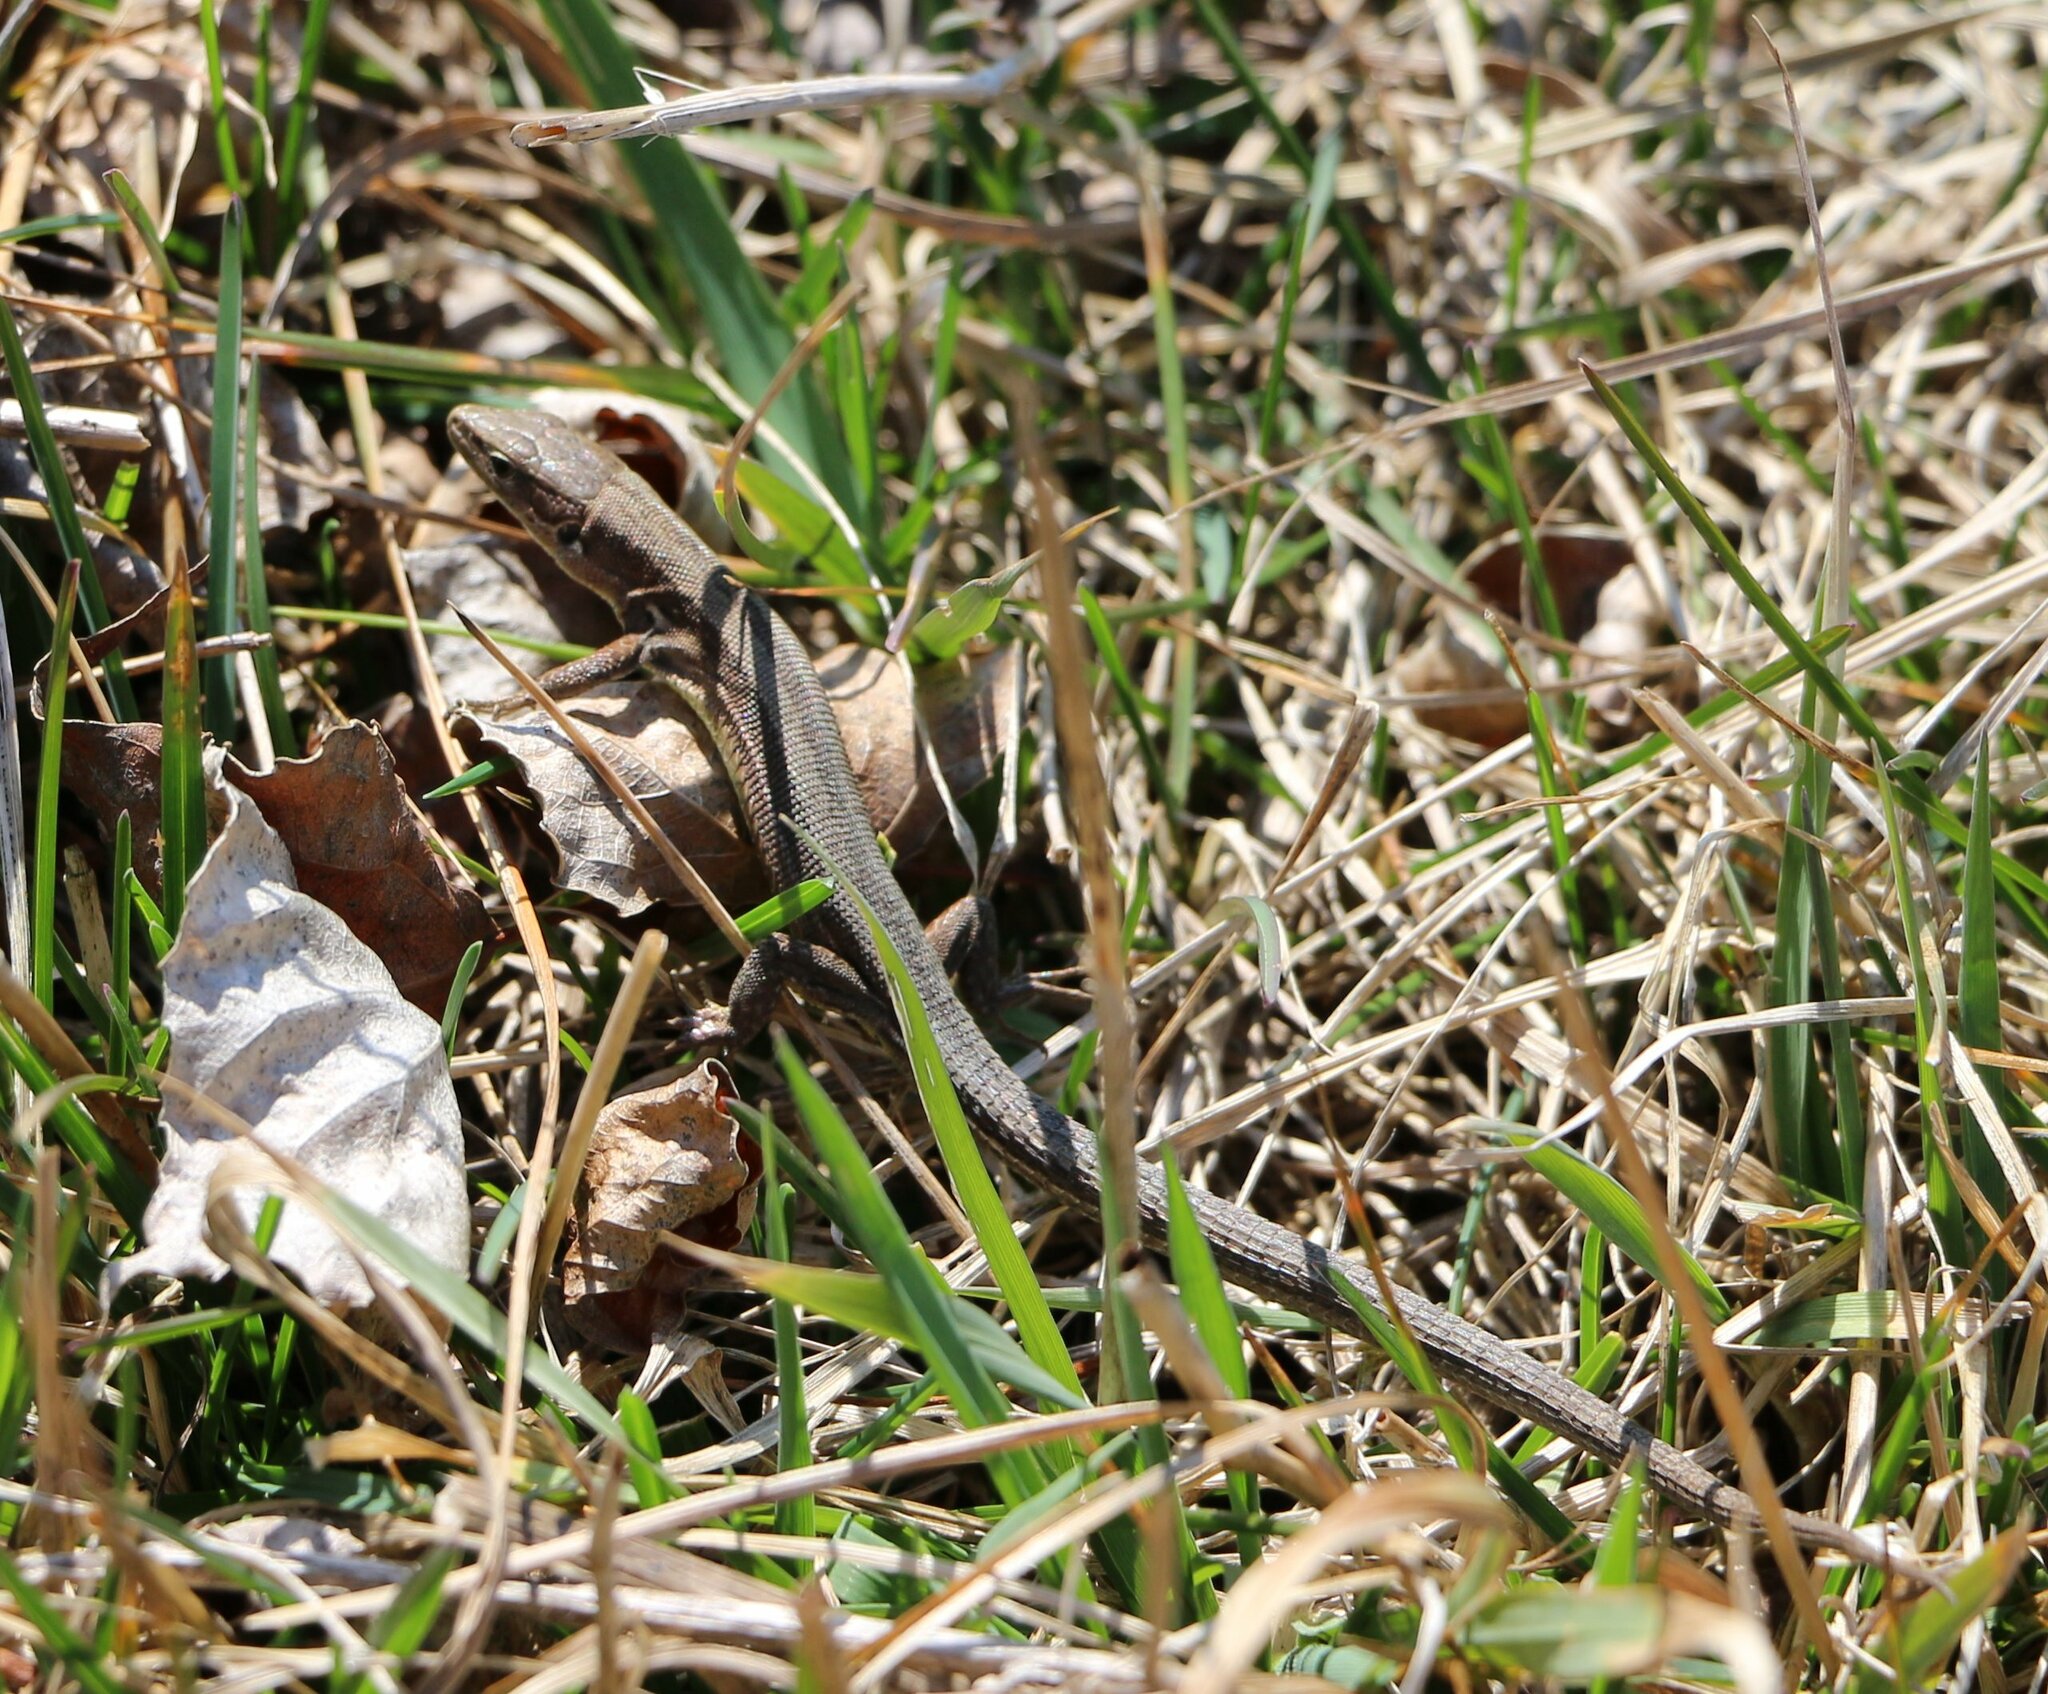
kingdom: Animalia
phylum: Chordata
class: Squamata
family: Lacertidae
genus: Darevskia
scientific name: Darevskia praticola
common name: Meadow lizard
